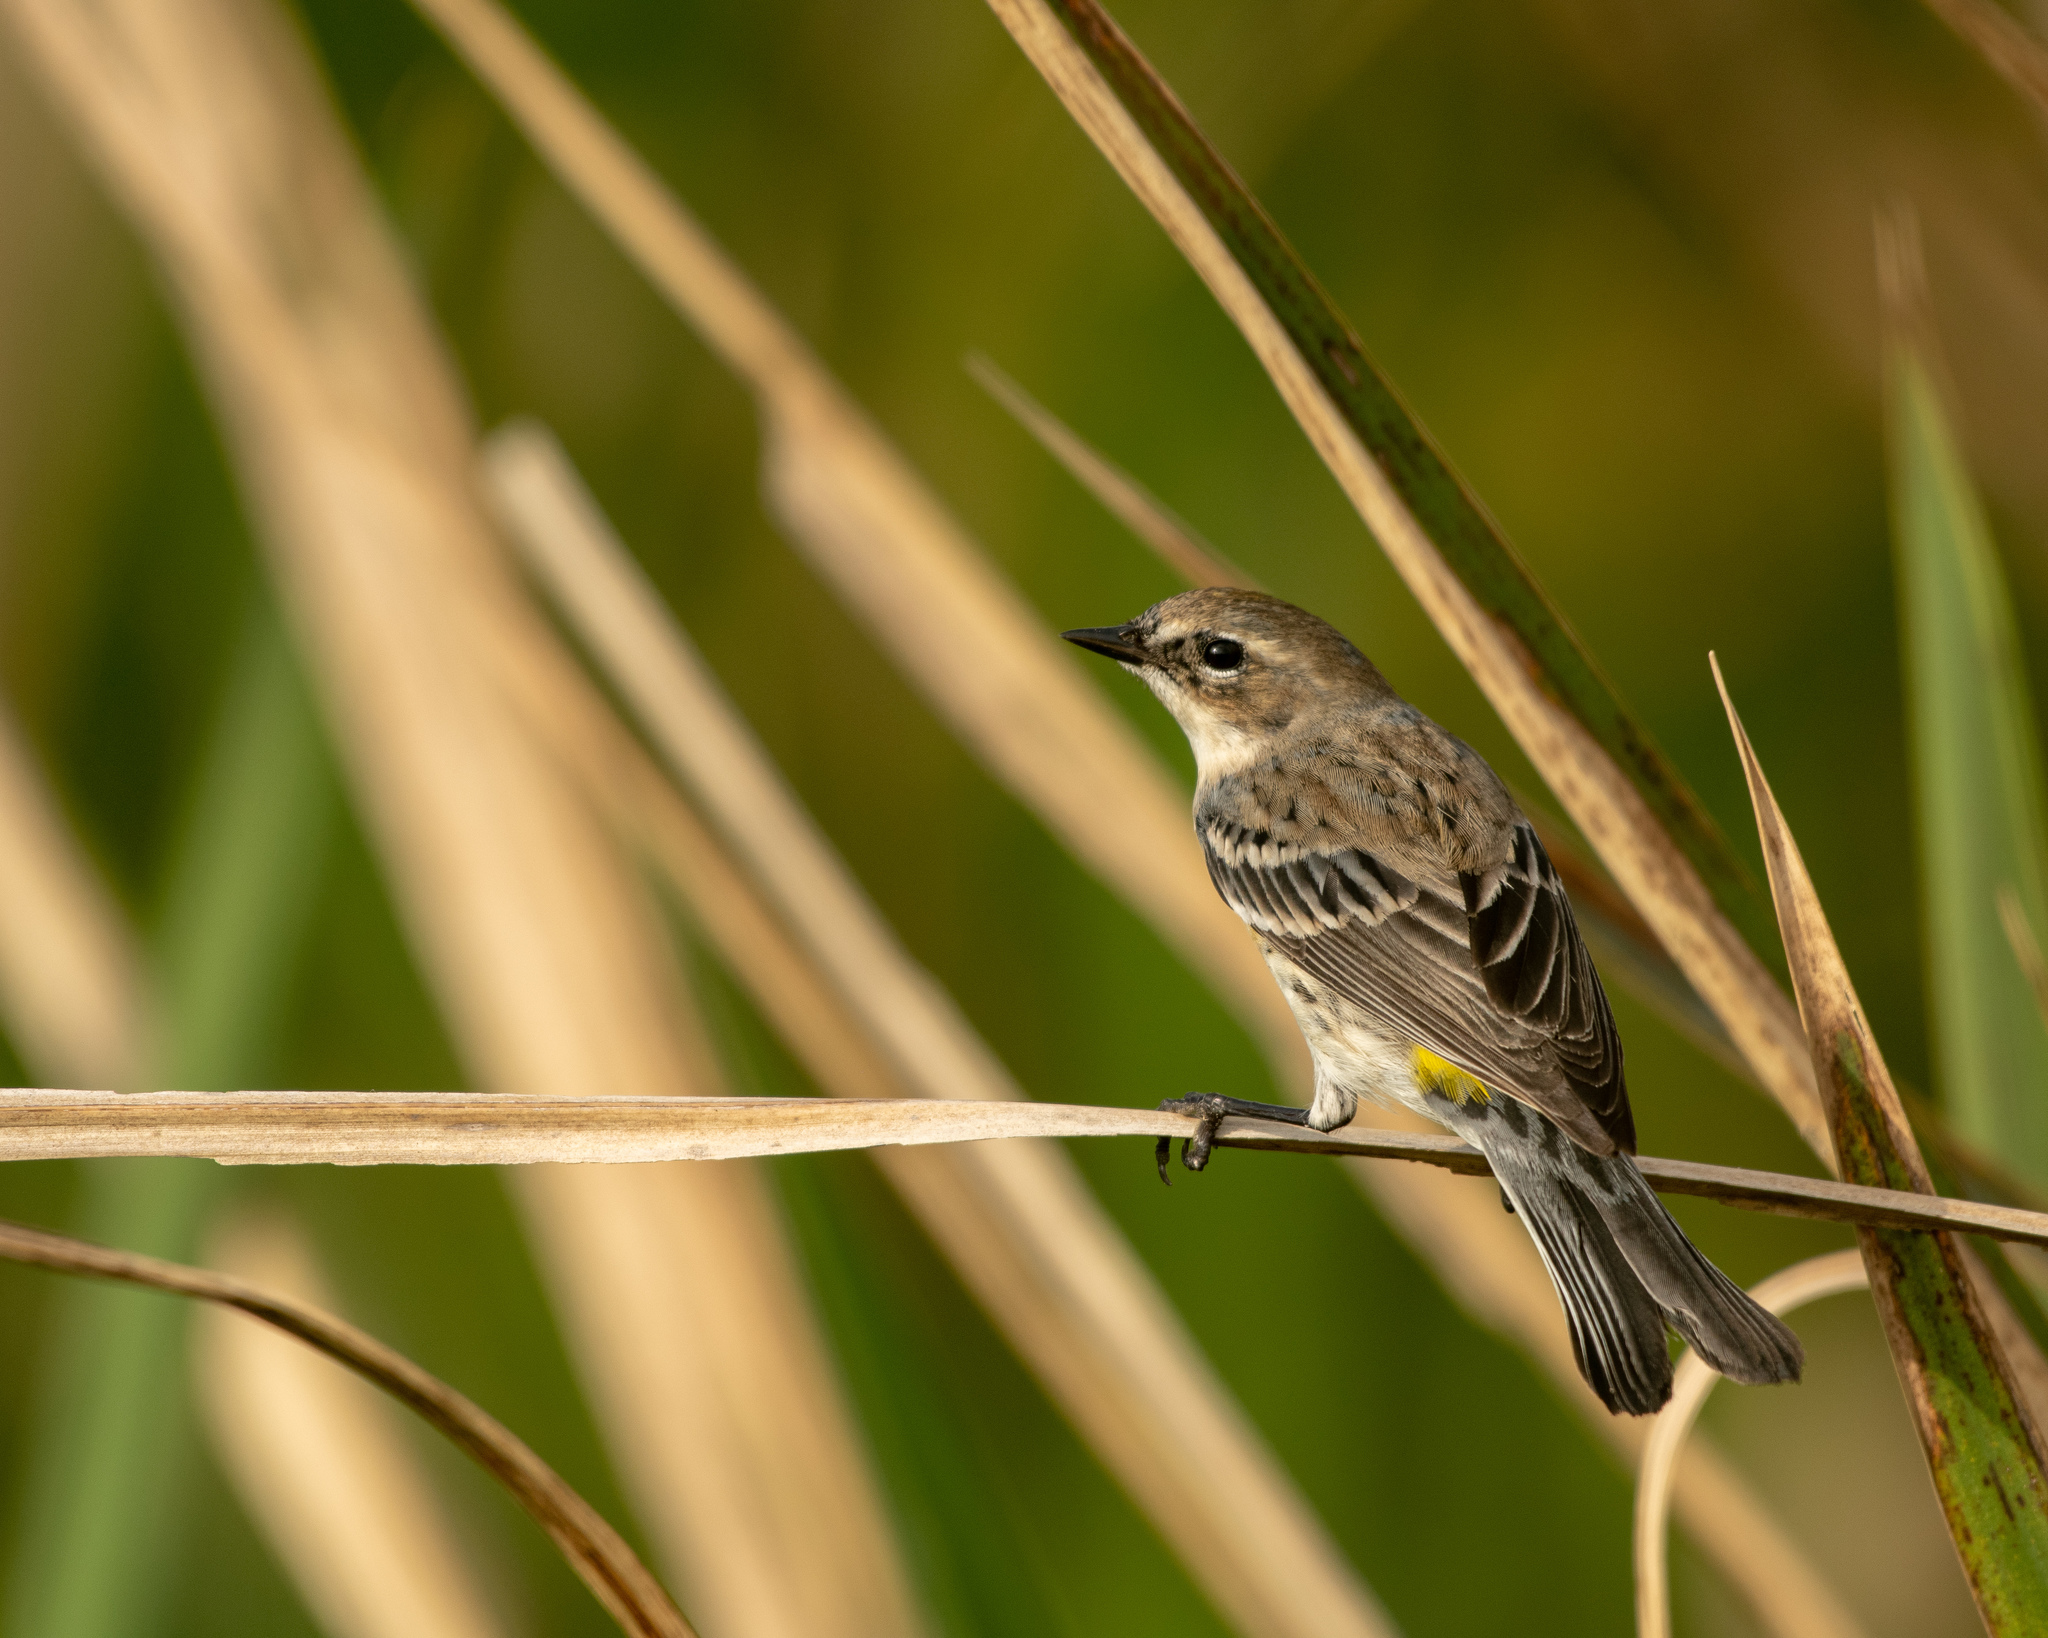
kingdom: Animalia
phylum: Chordata
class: Aves
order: Passeriformes
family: Parulidae
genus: Setophaga
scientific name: Setophaga coronata
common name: Myrtle warbler
